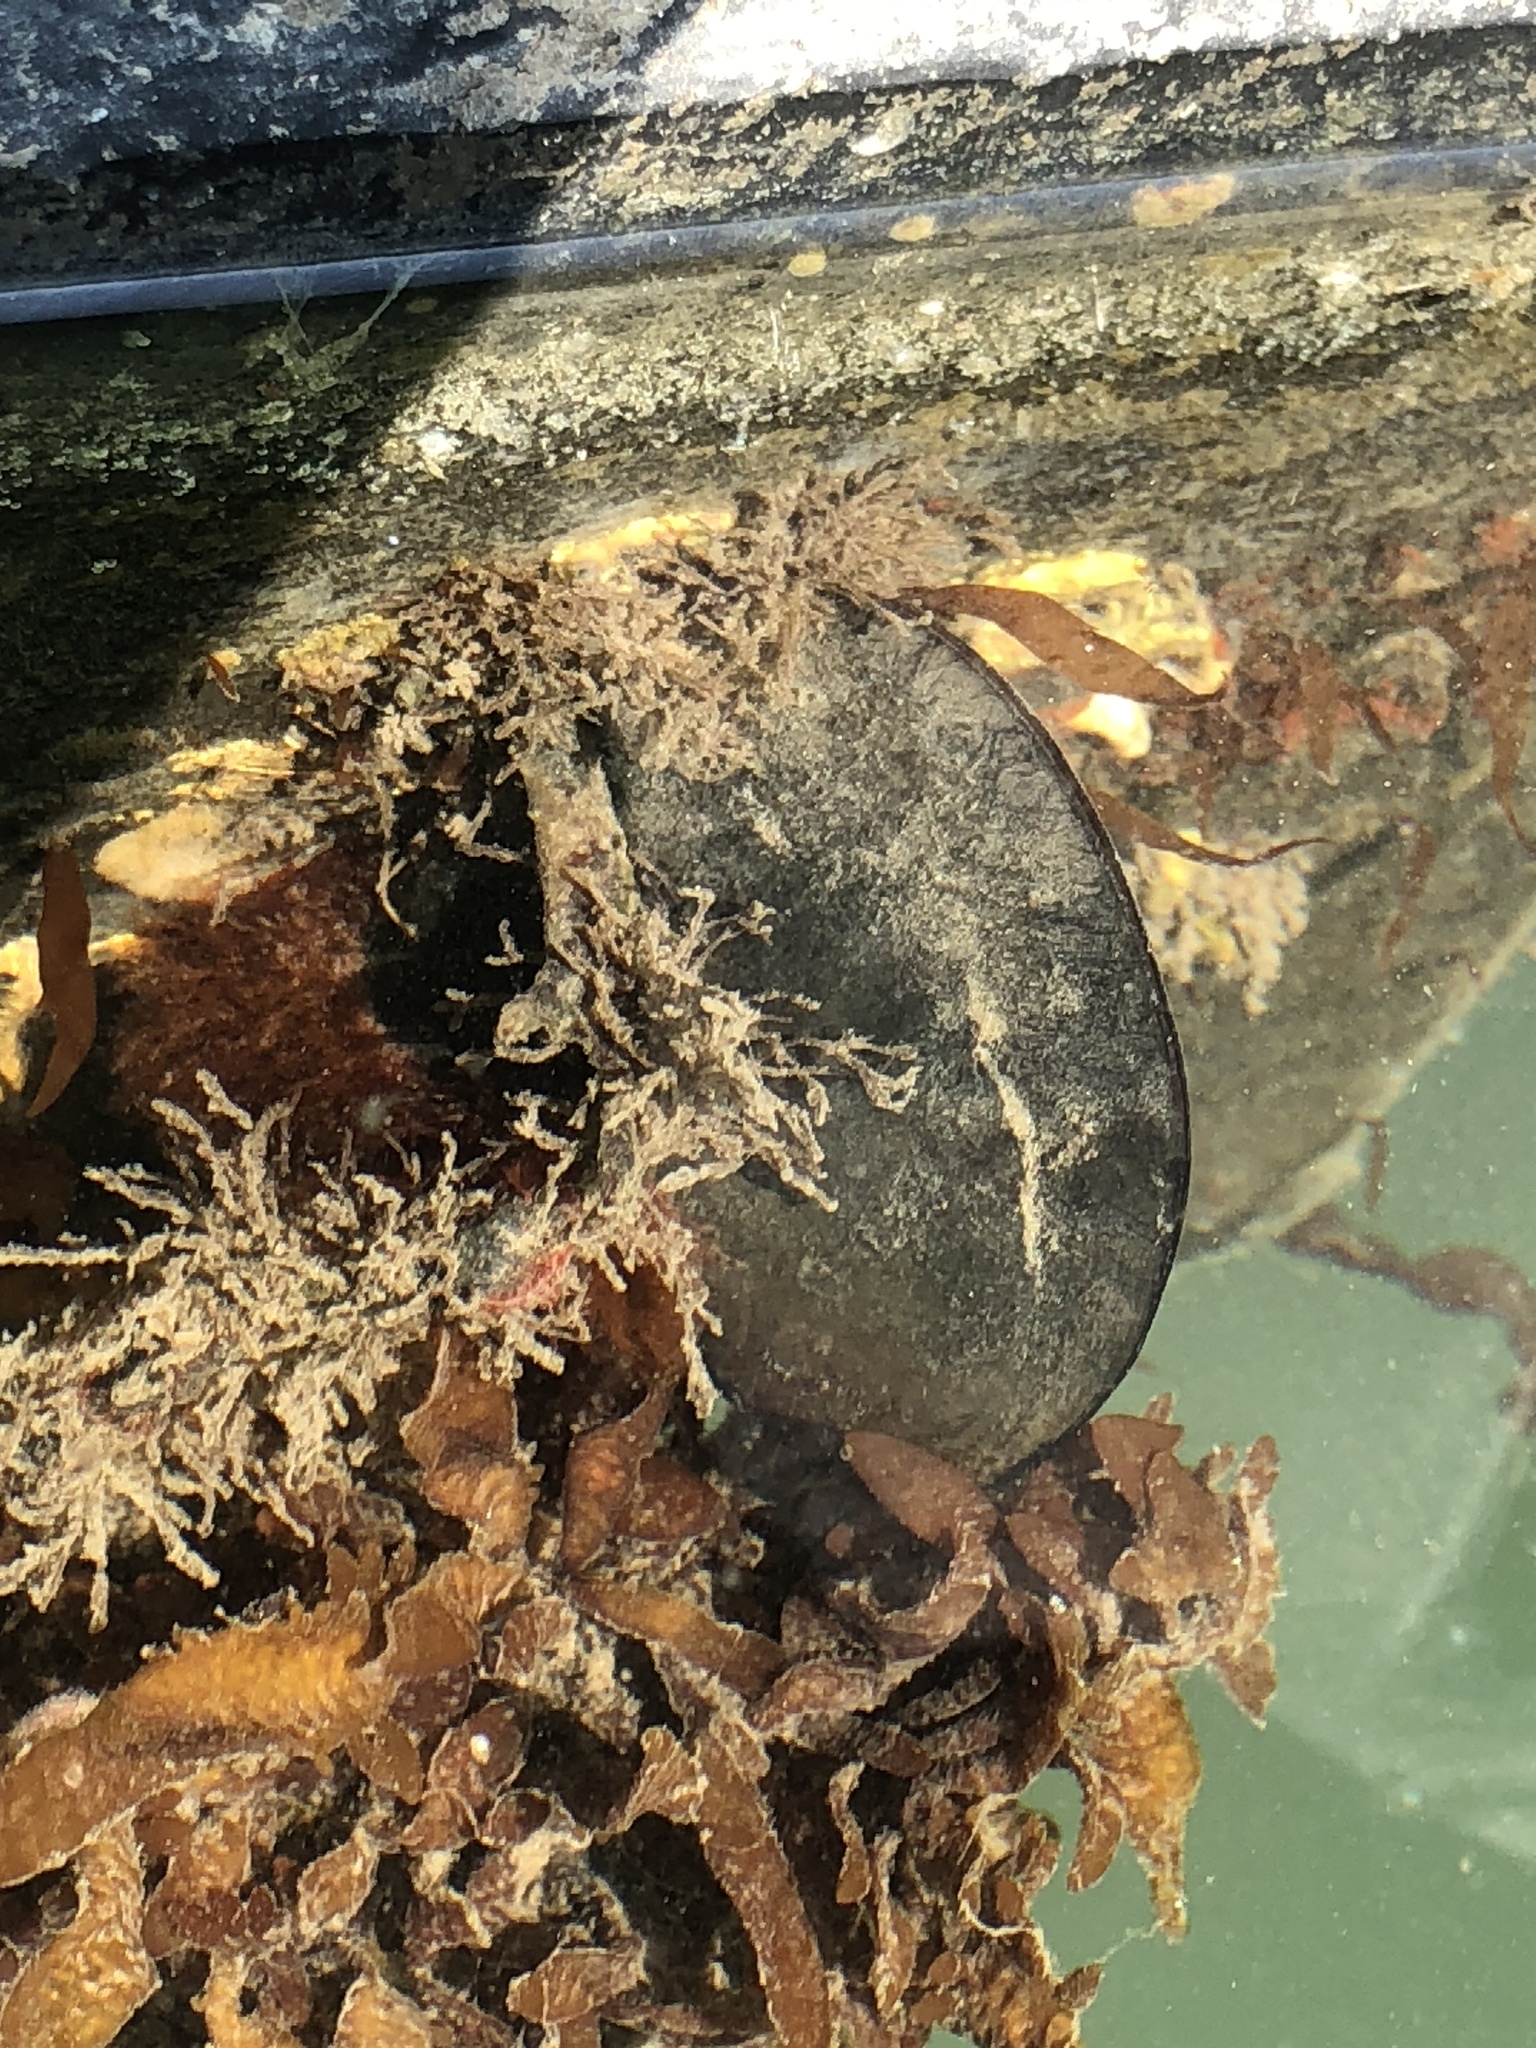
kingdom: Animalia
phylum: Mollusca
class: Bivalvia
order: Mytilida
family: Mytilidae
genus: Mytilus
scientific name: Mytilus
